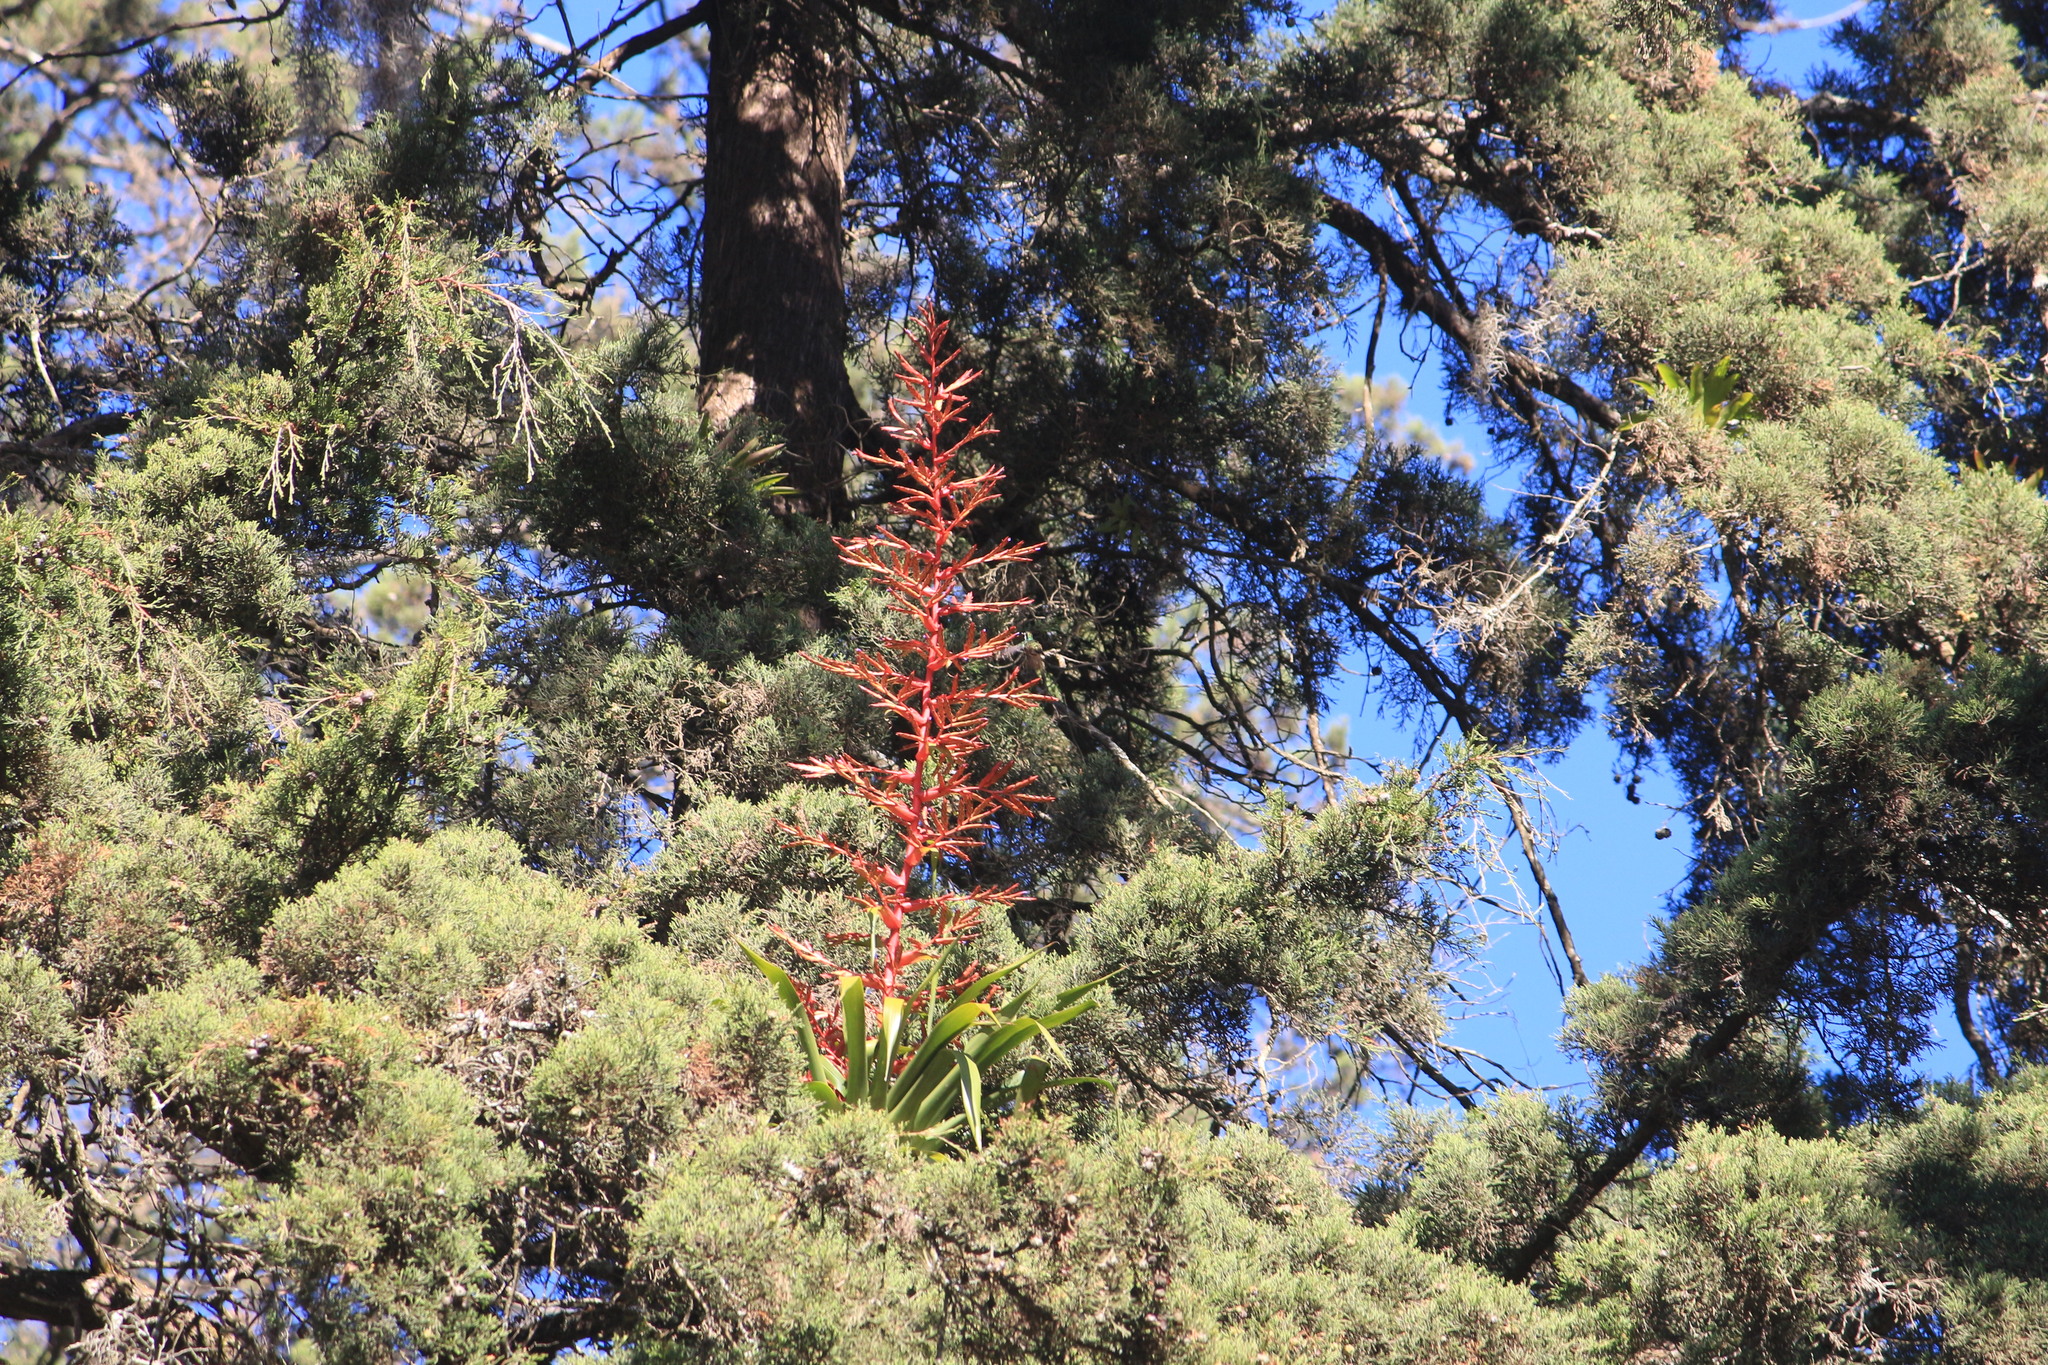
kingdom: Plantae
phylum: Tracheophyta
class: Liliopsida
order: Poales
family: Bromeliaceae
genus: Tillandsia
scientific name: Tillandsia guatemalensis
